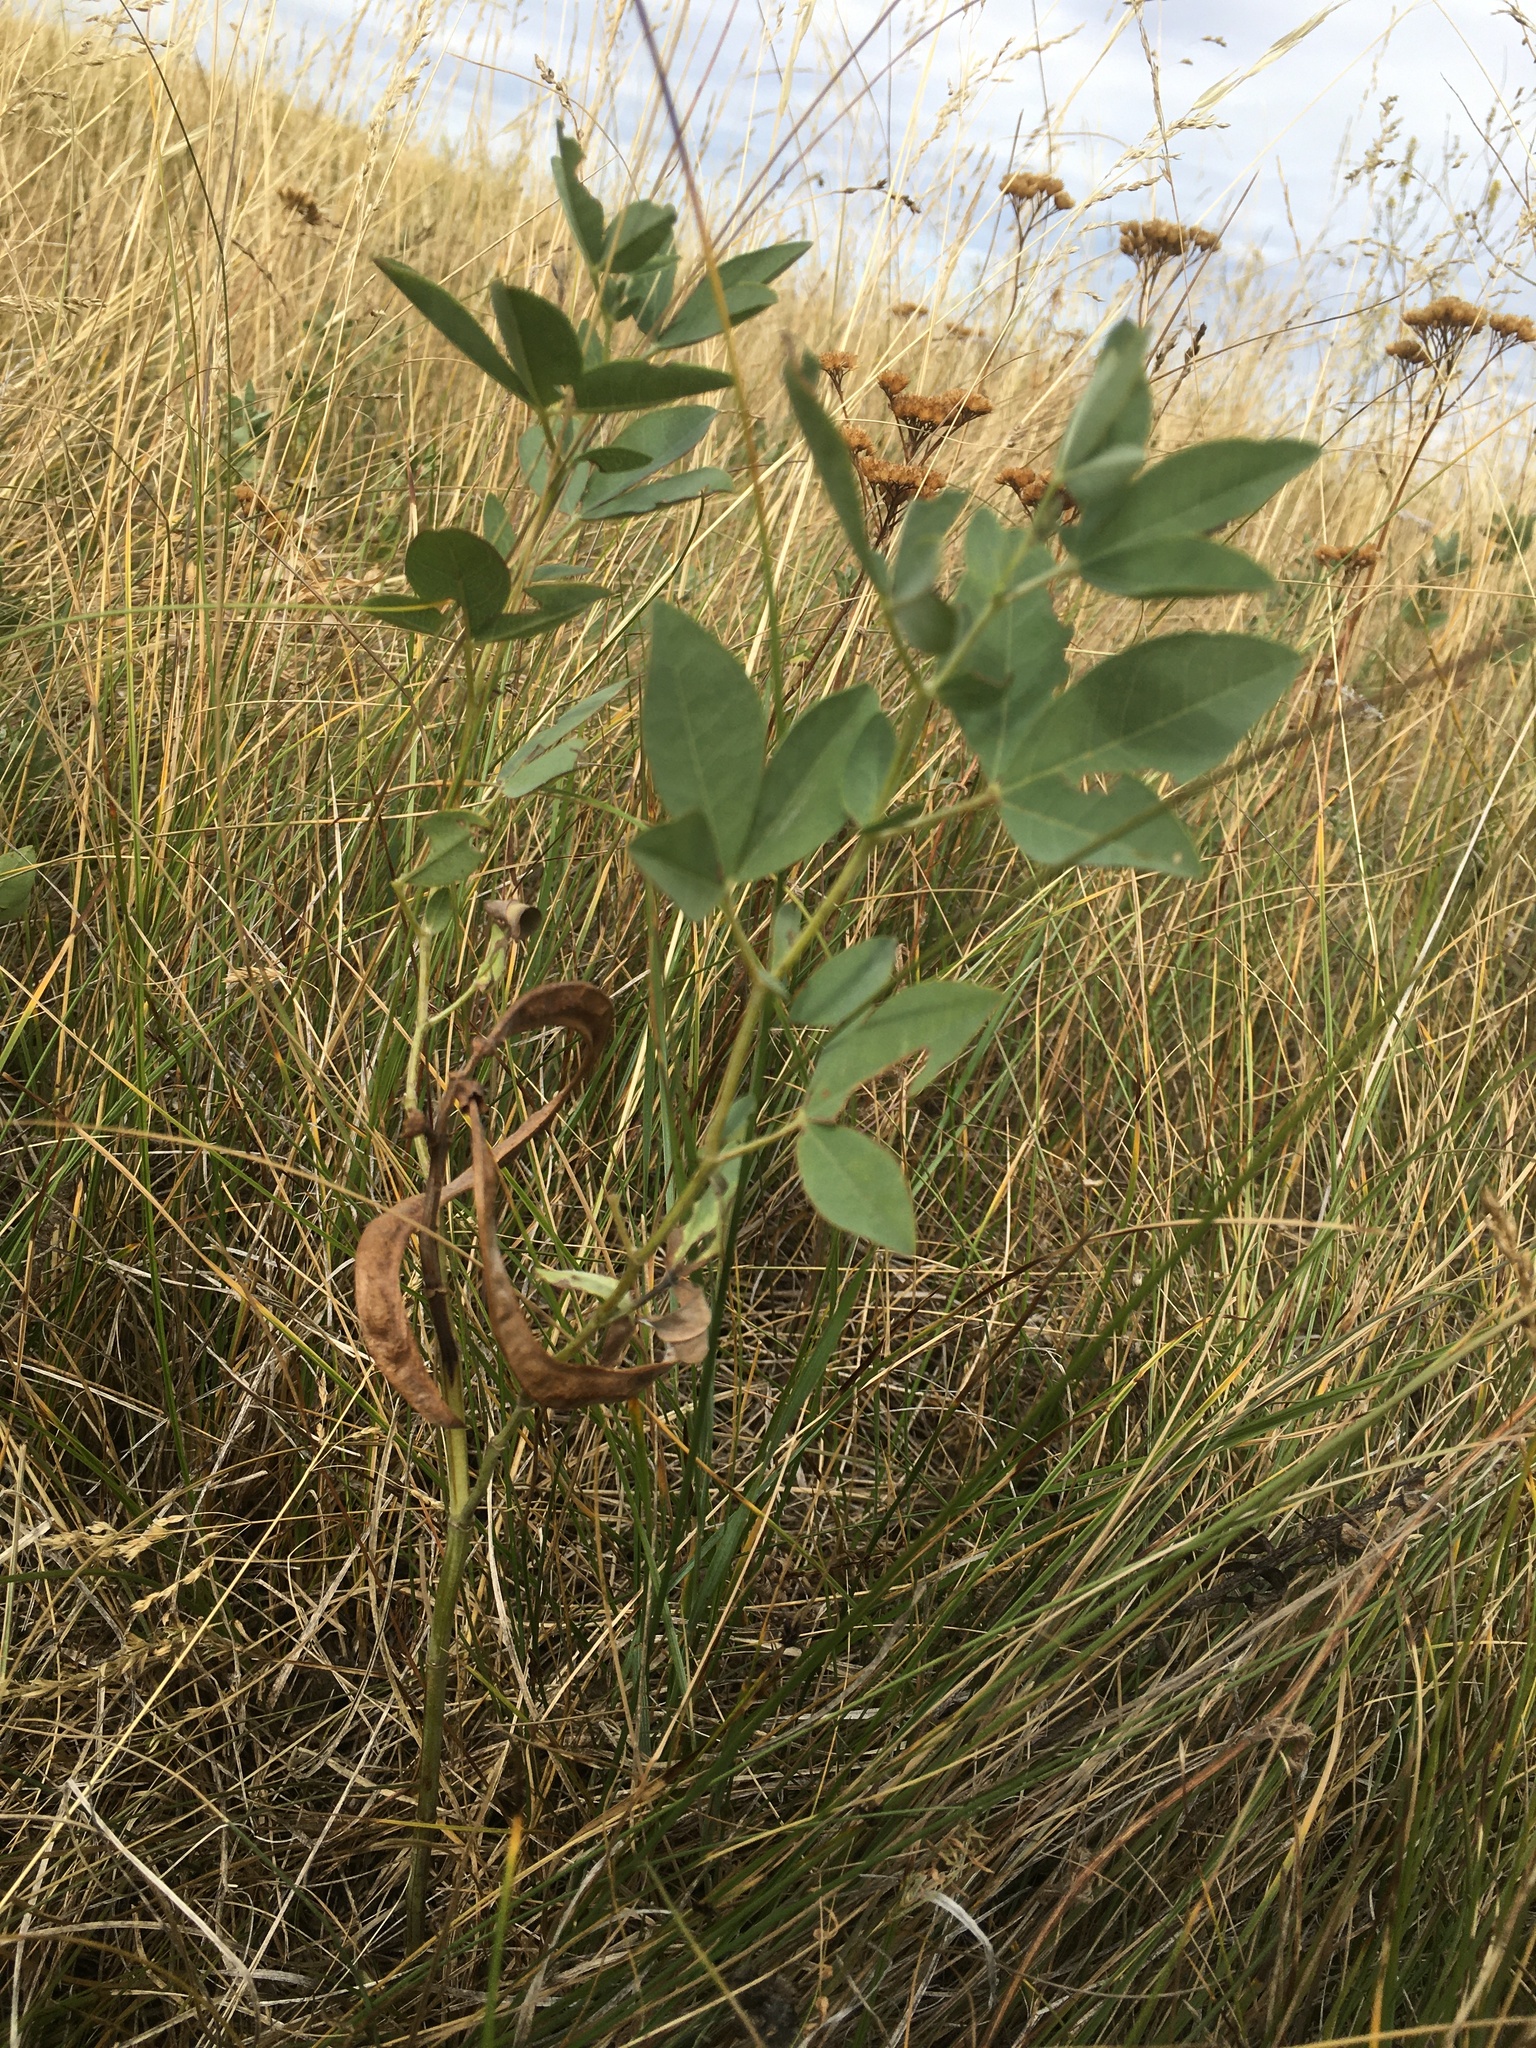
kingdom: Plantae
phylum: Tracheophyta
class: Magnoliopsida
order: Fabales
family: Fabaceae
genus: Thermopsis
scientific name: Thermopsis rhombifolia
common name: Circle-pod-pea
